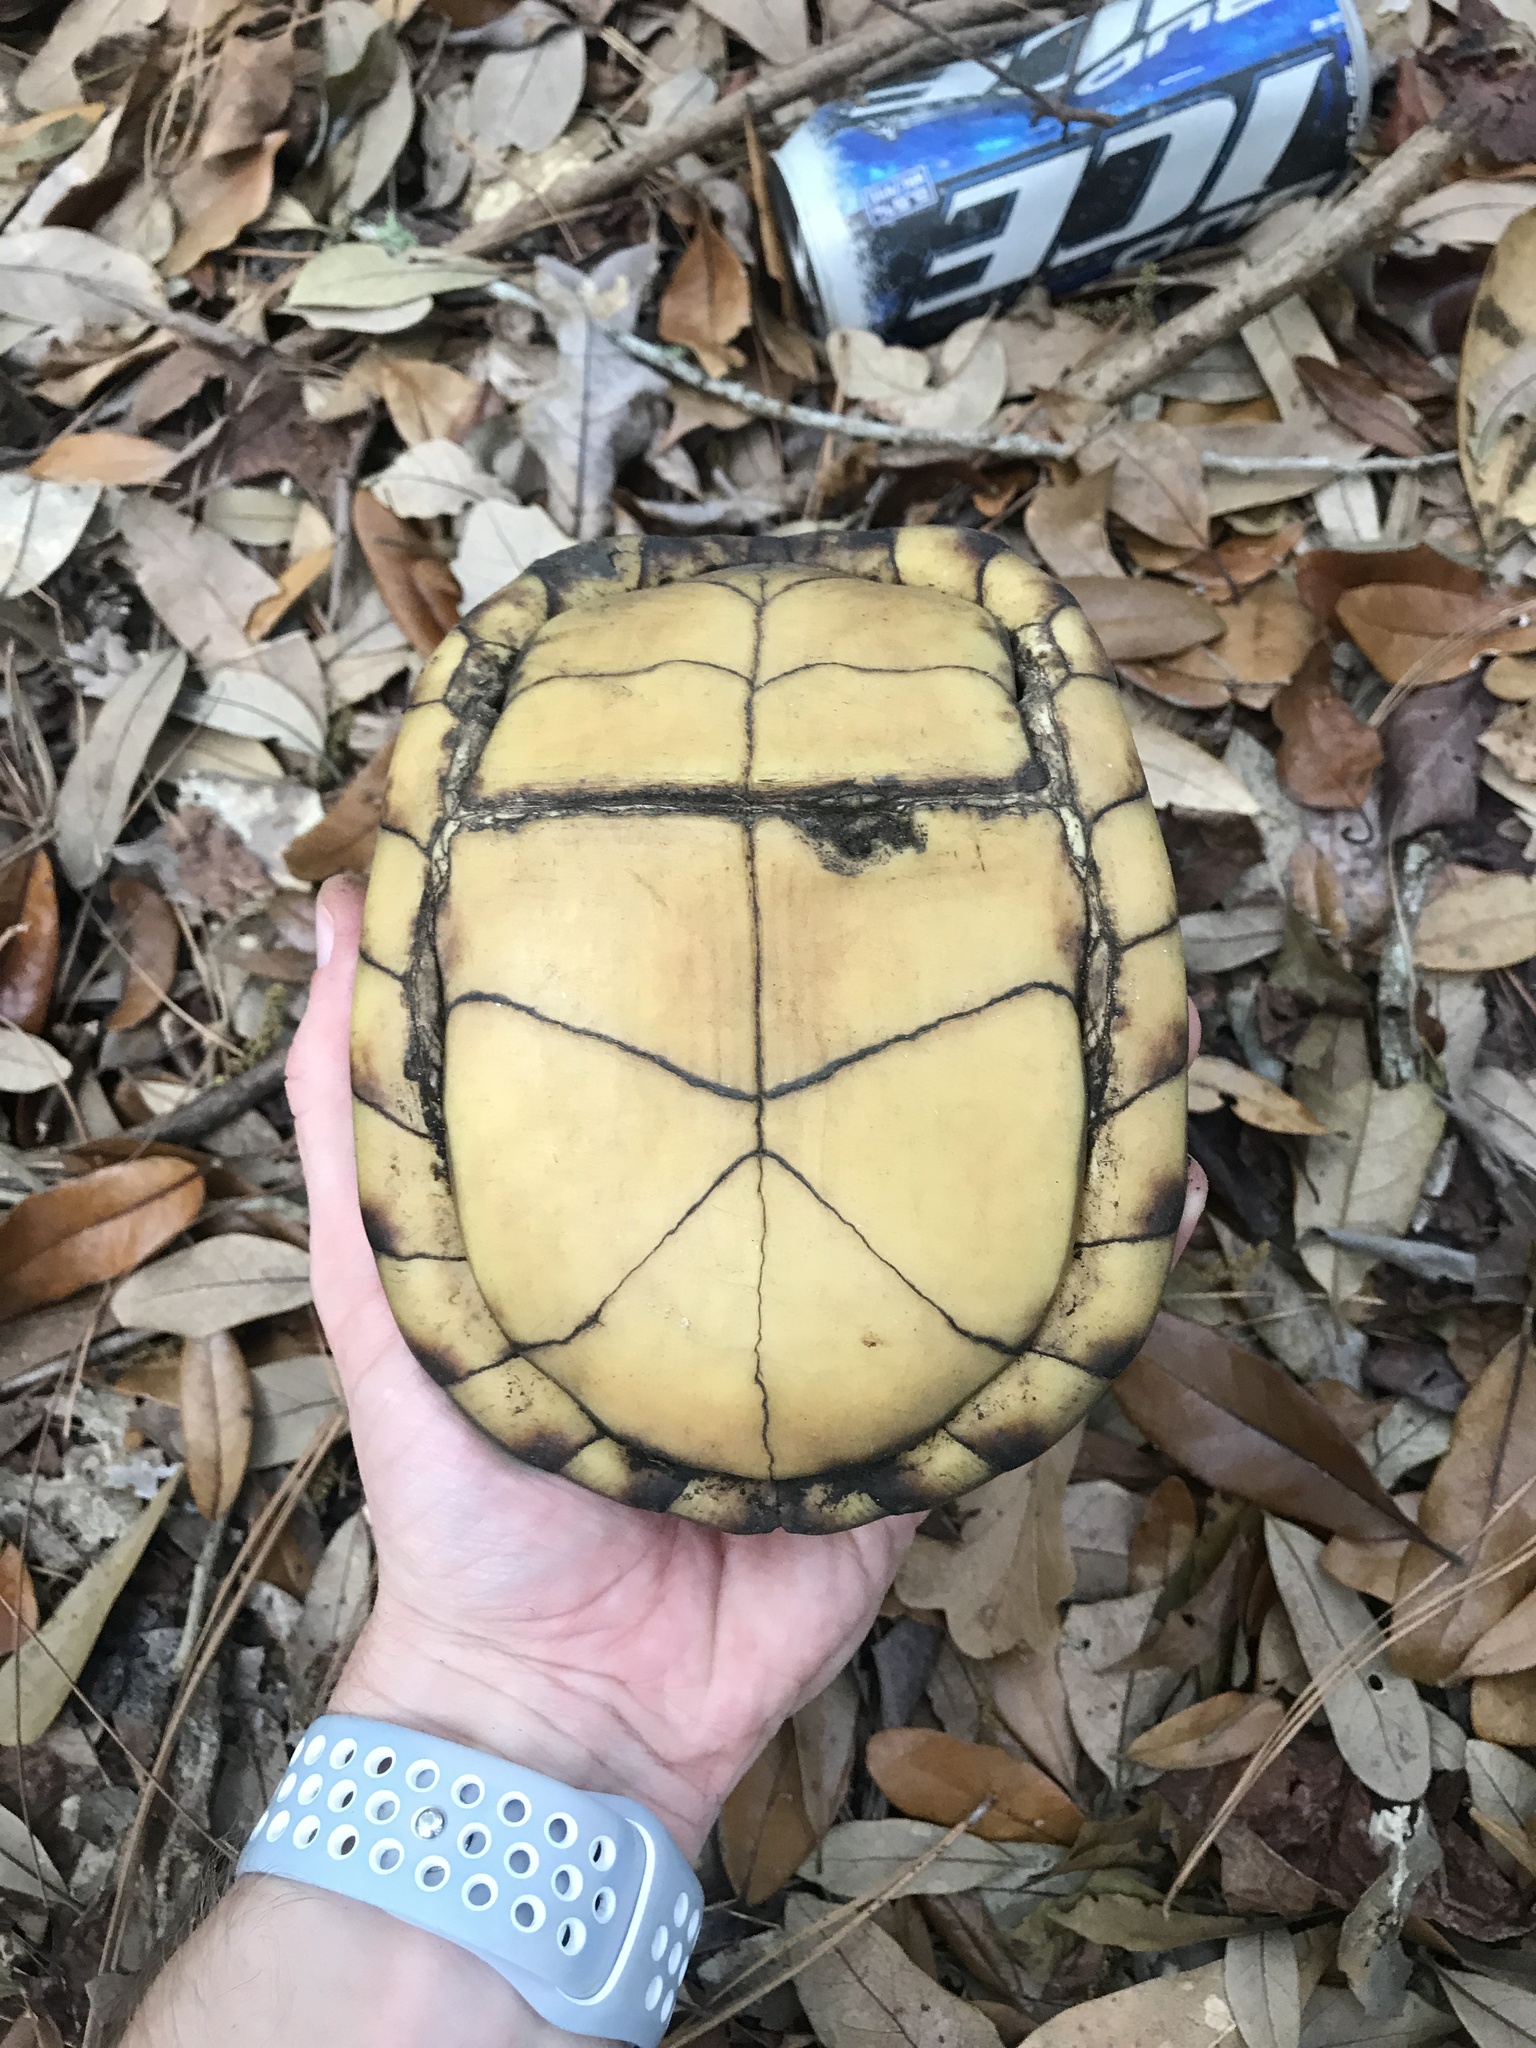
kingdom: Animalia
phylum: Chordata
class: Testudines
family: Emydidae
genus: Terrapene
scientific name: Terrapene carolina
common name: Common box turtle
